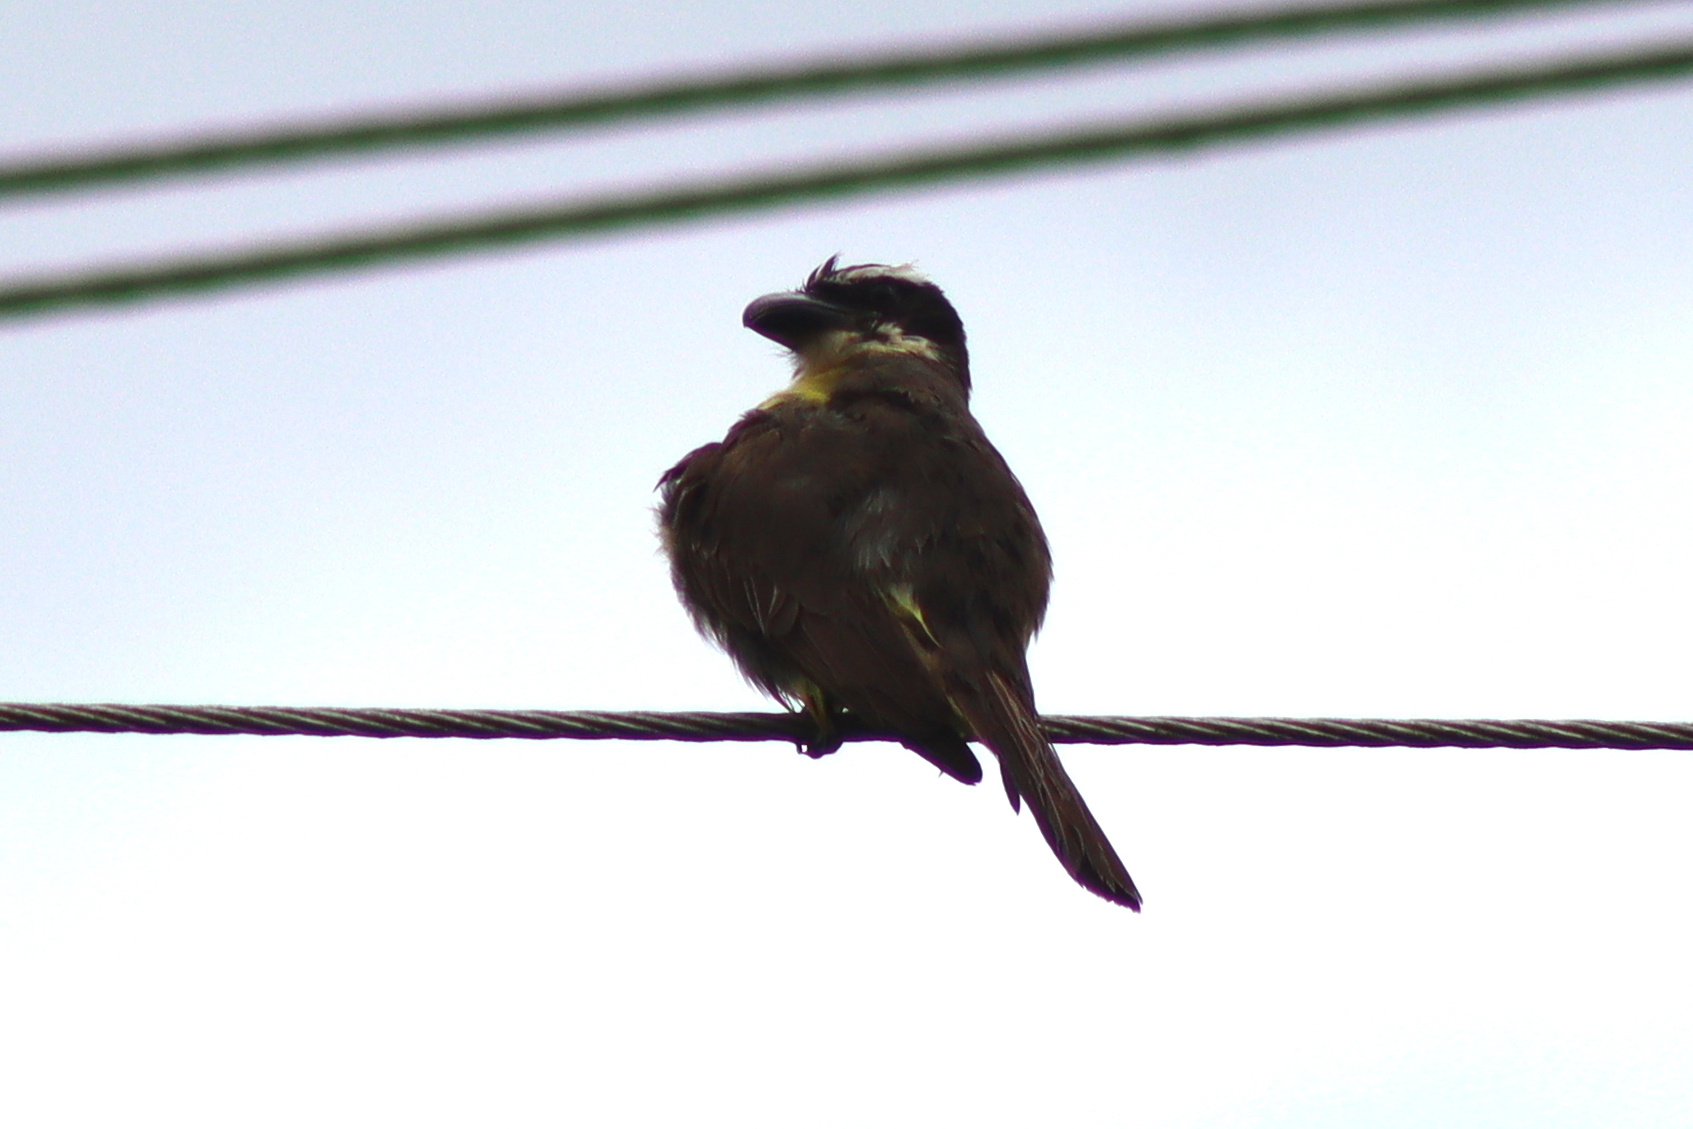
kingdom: Animalia
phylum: Chordata
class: Aves
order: Passeriformes
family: Tyrannidae
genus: Megarynchus
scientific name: Megarynchus pitangua
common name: Boat-billed flycatcher
